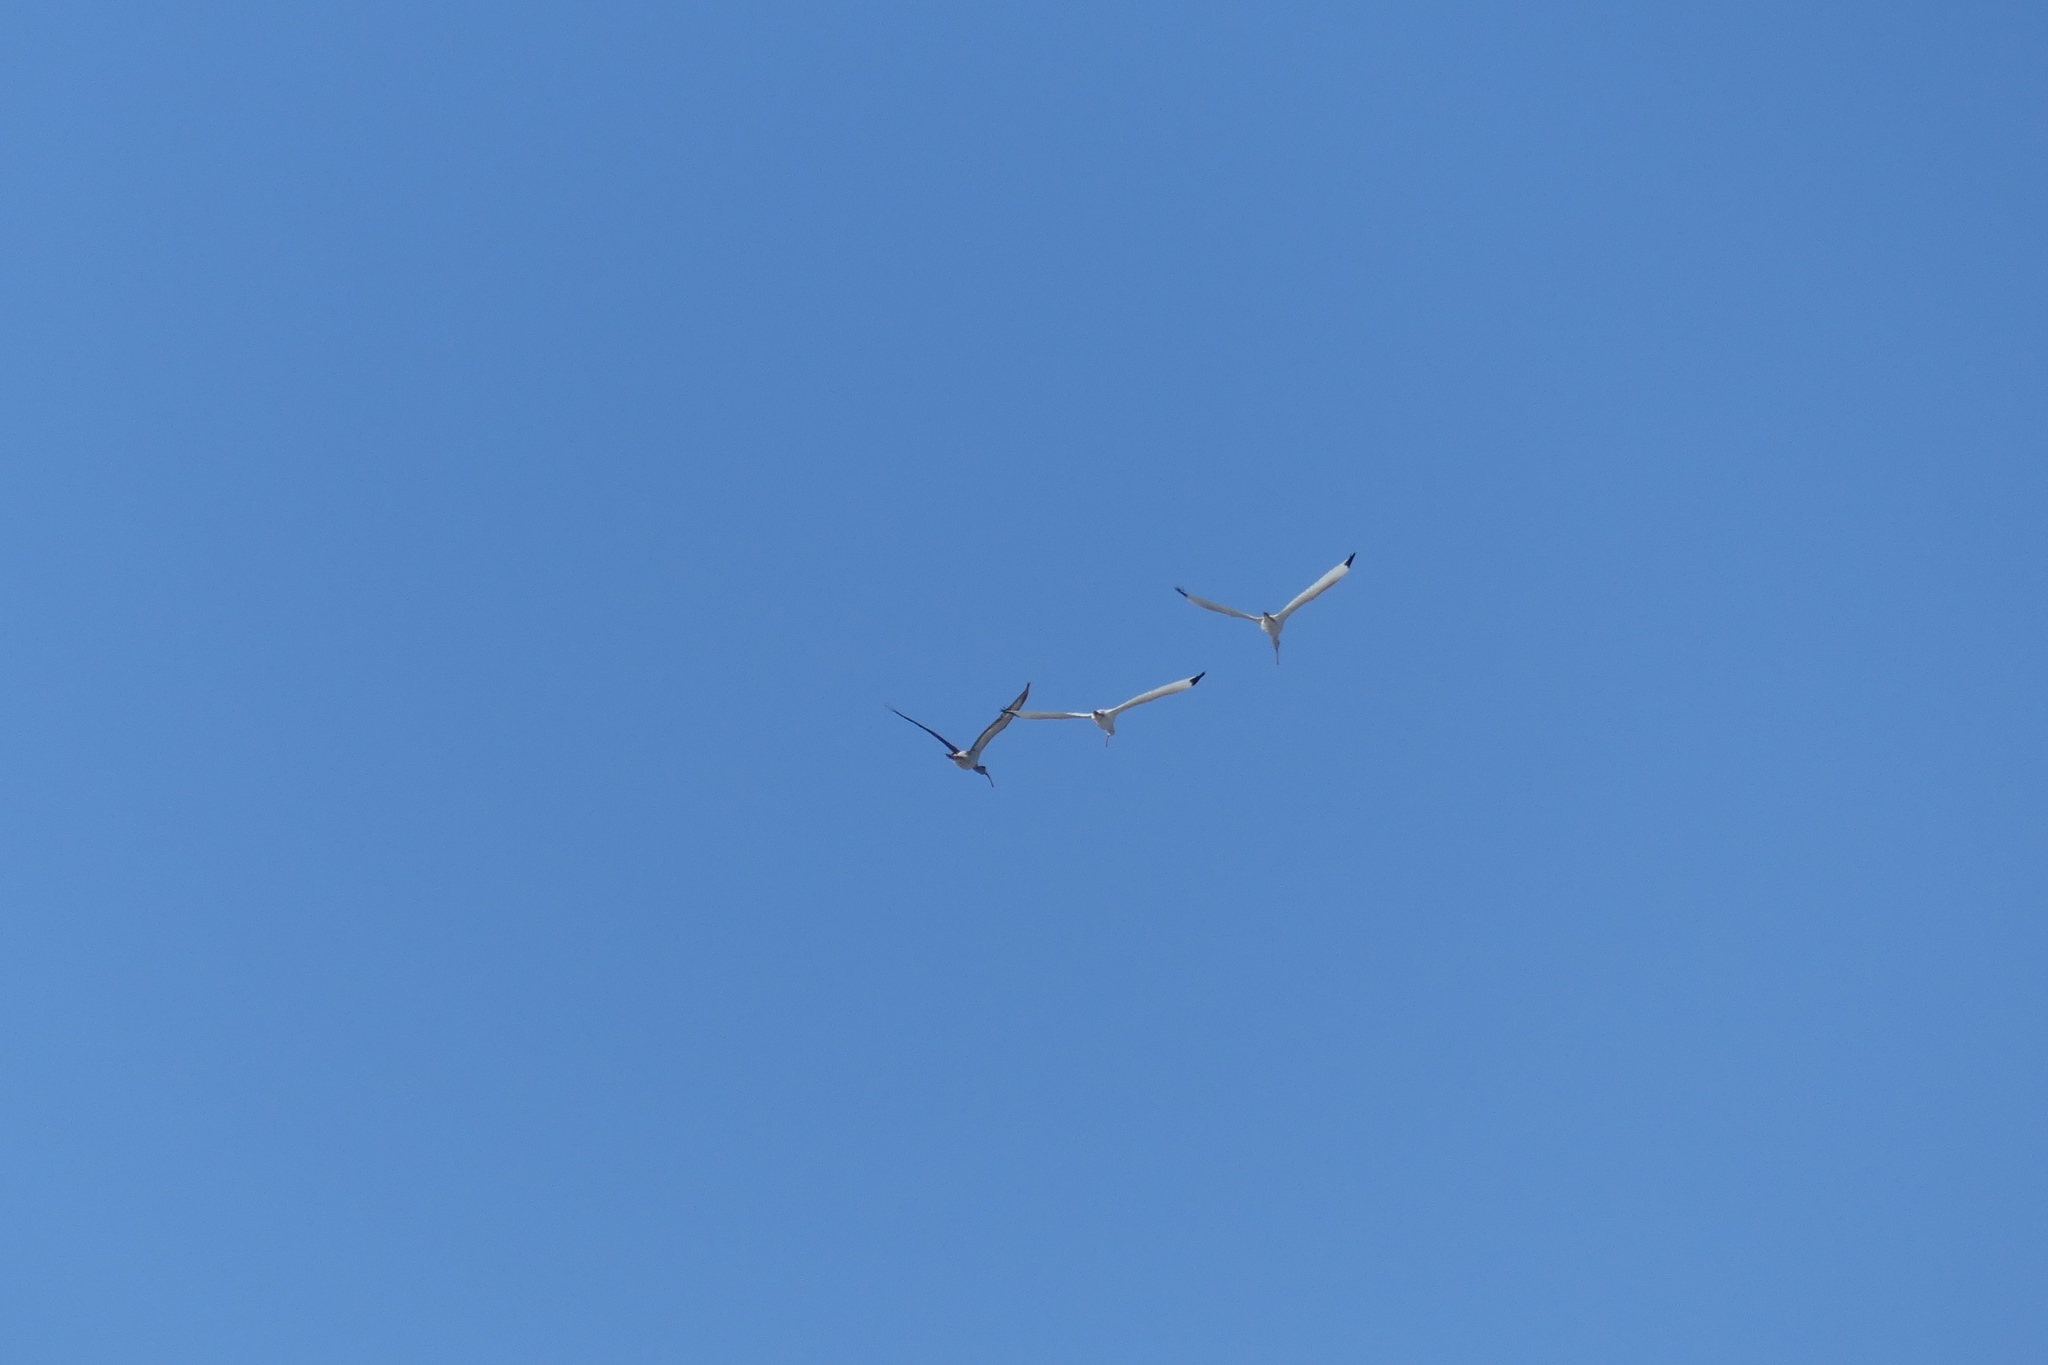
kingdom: Animalia
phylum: Chordata
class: Aves
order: Pelecaniformes
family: Threskiornithidae
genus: Eudocimus
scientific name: Eudocimus albus
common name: White ibis
